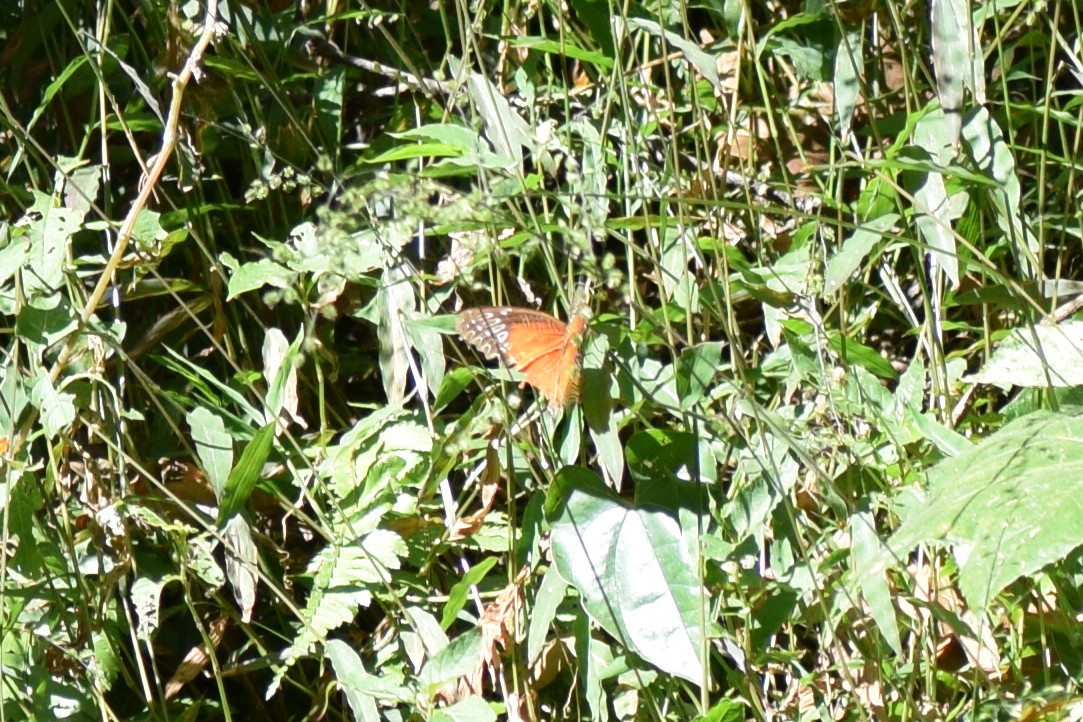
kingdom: Animalia
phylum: Arthropoda
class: Insecta
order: Lepidoptera
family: Nymphalidae
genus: Cethosia
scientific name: Cethosia biblis
